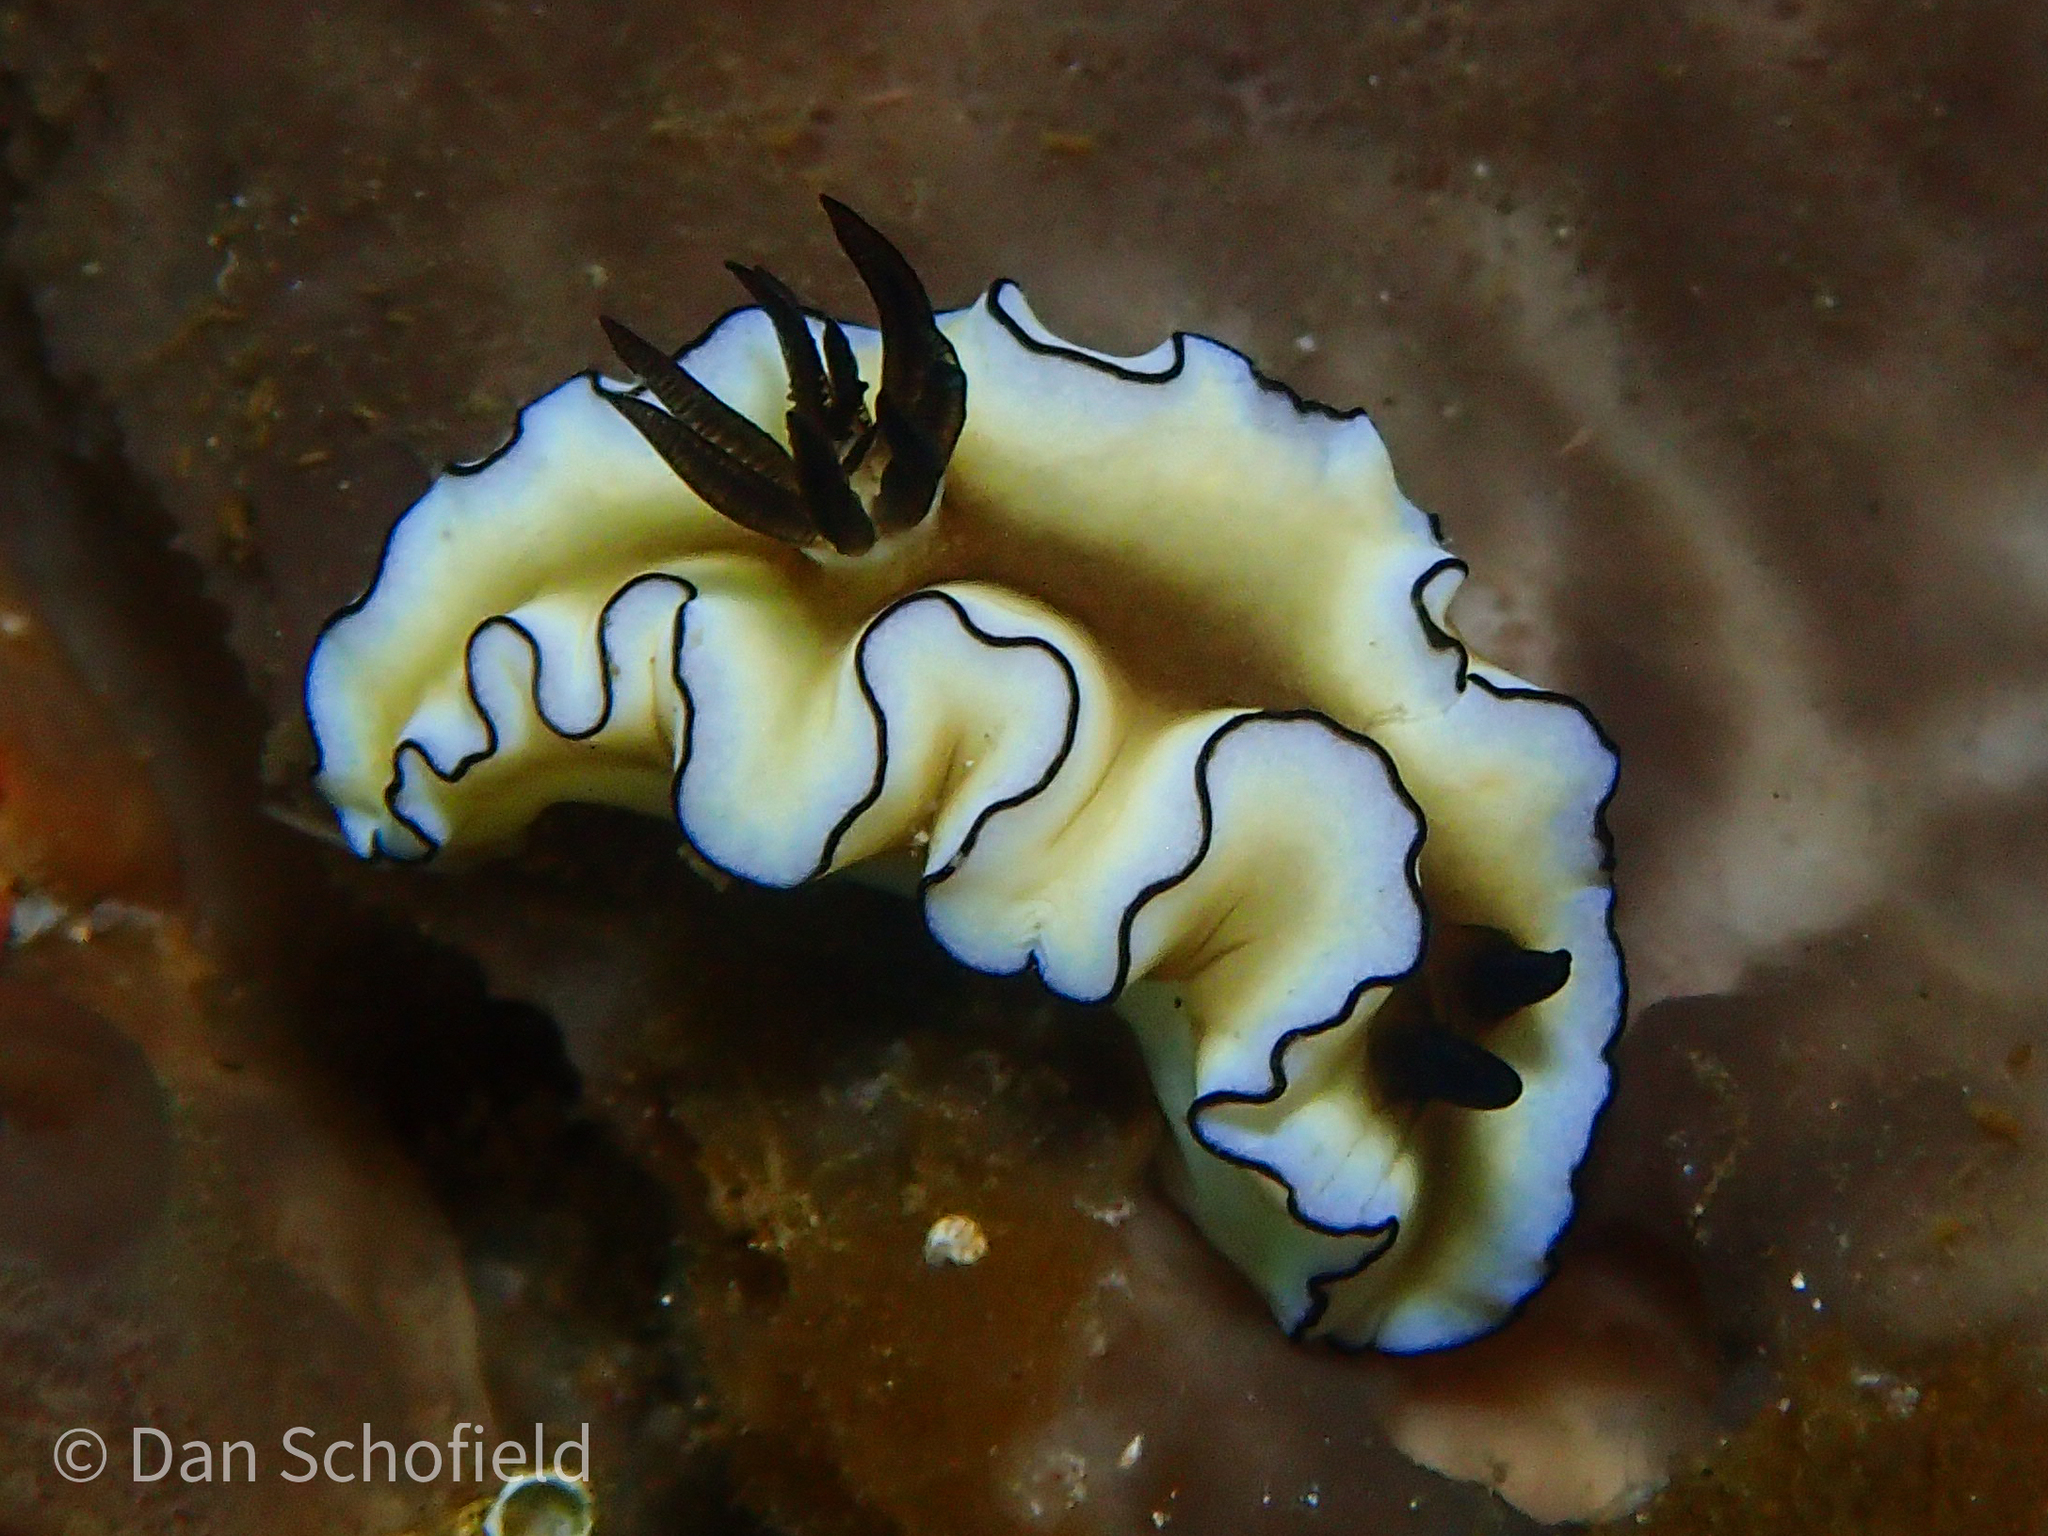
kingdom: Animalia
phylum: Mollusca
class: Gastropoda
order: Nudibranchia
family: Chromodorididae
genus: Doriprismatica
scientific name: Doriprismatica atromarginata
